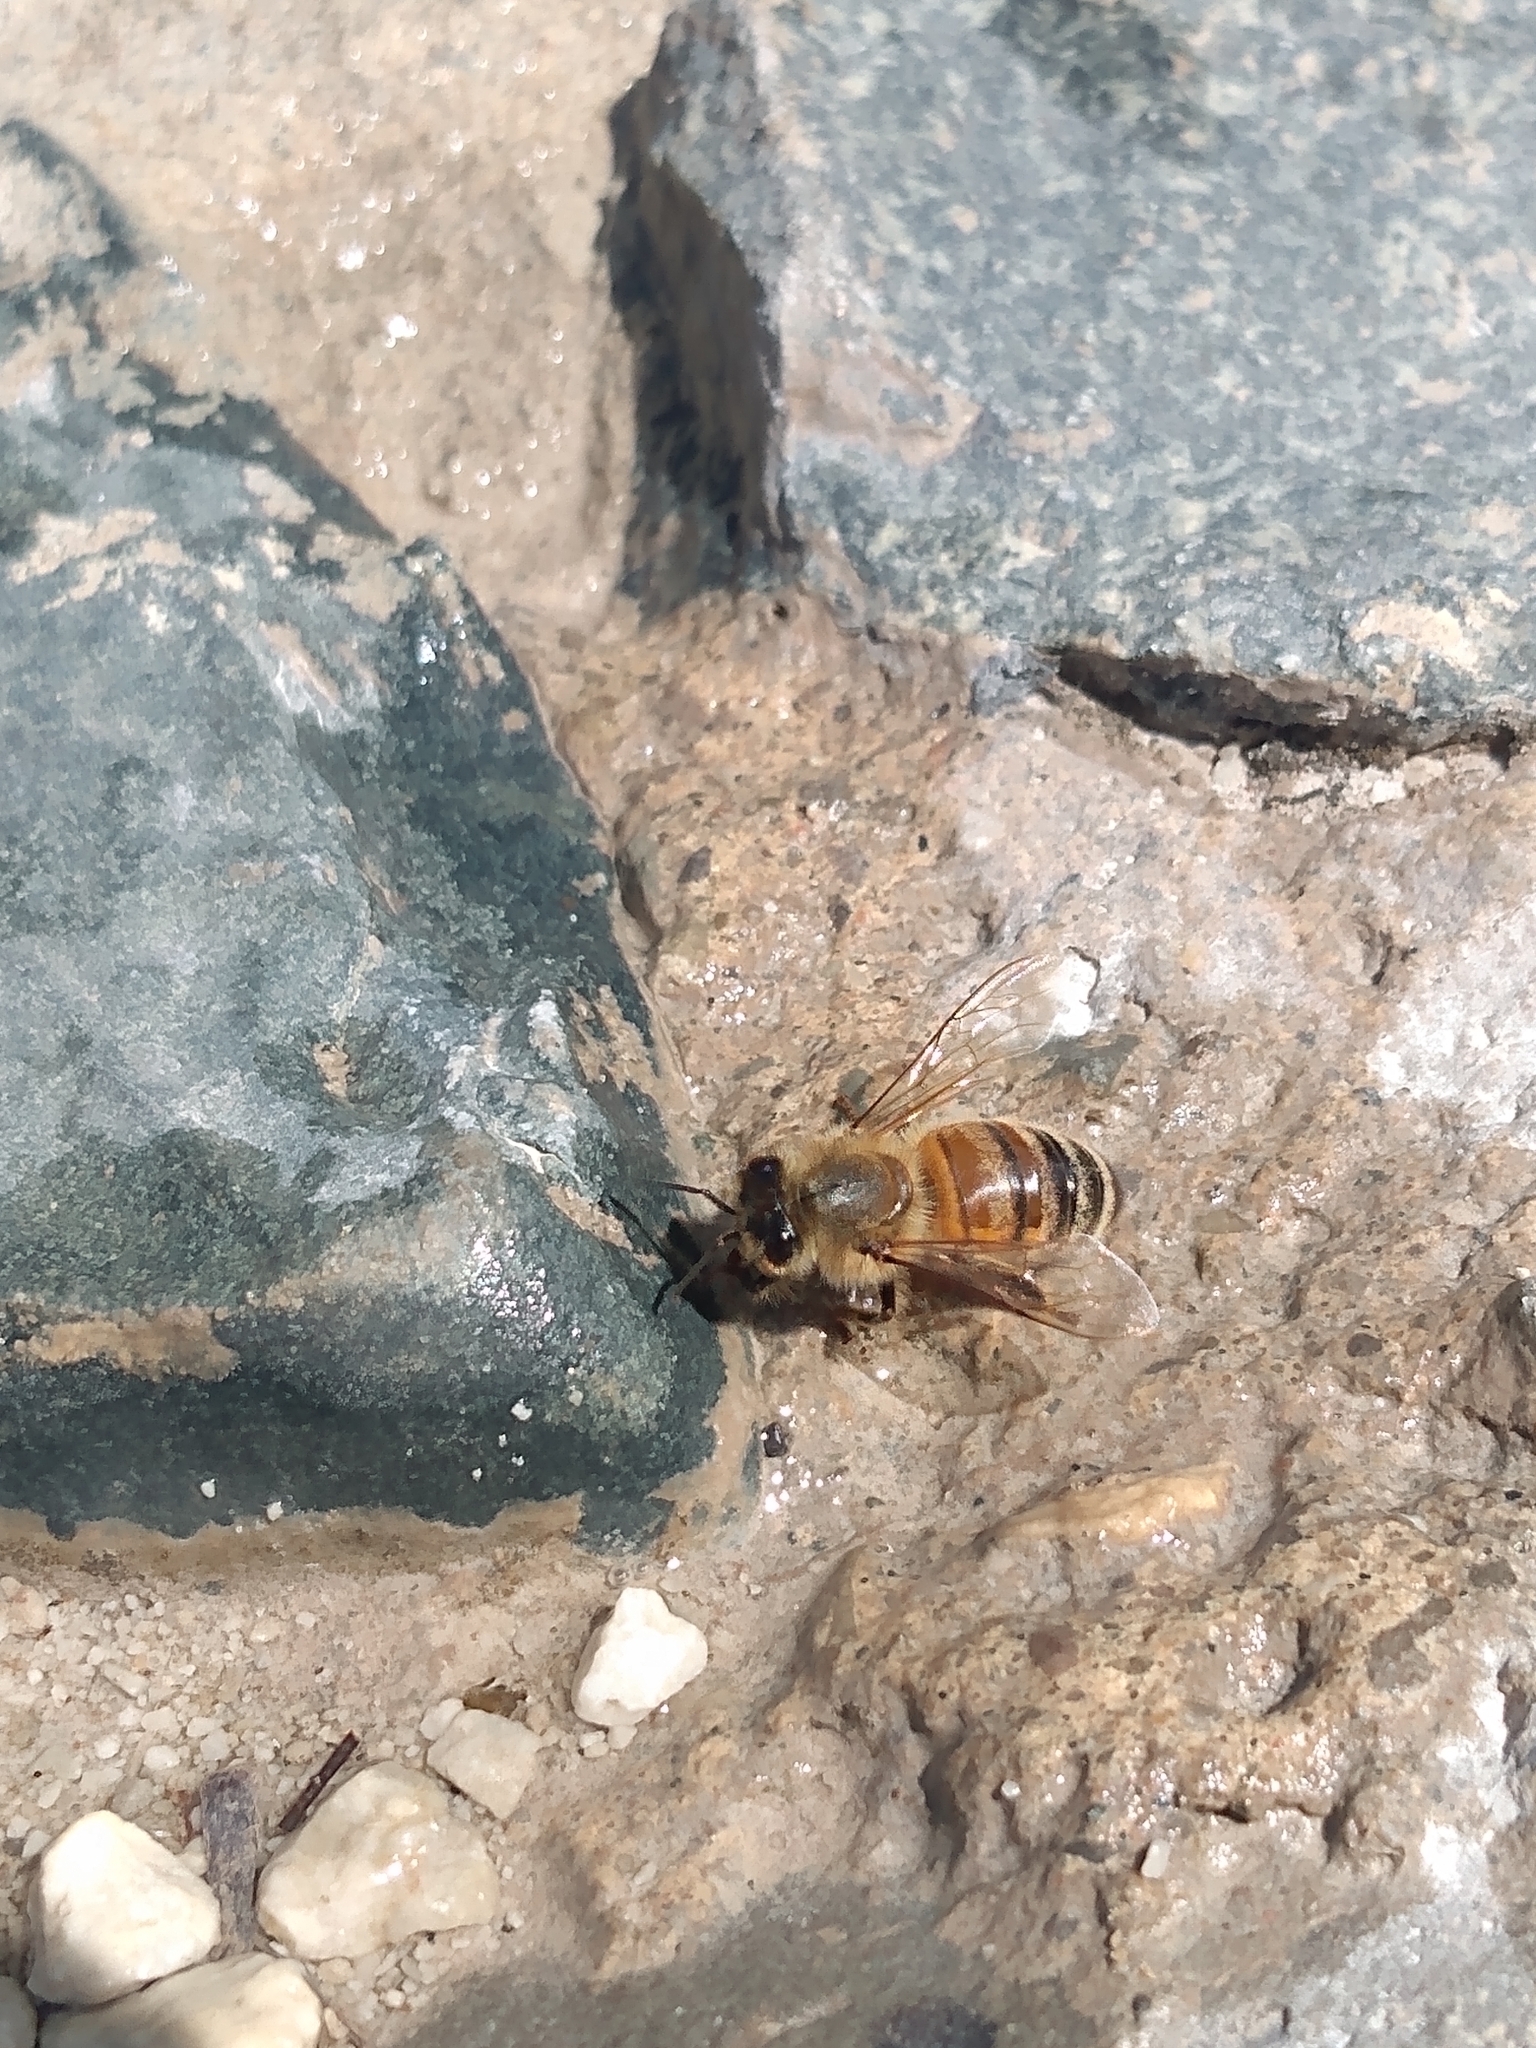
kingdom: Animalia
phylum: Arthropoda
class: Insecta
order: Hymenoptera
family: Apidae
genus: Apis
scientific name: Apis mellifera
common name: Honey bee
